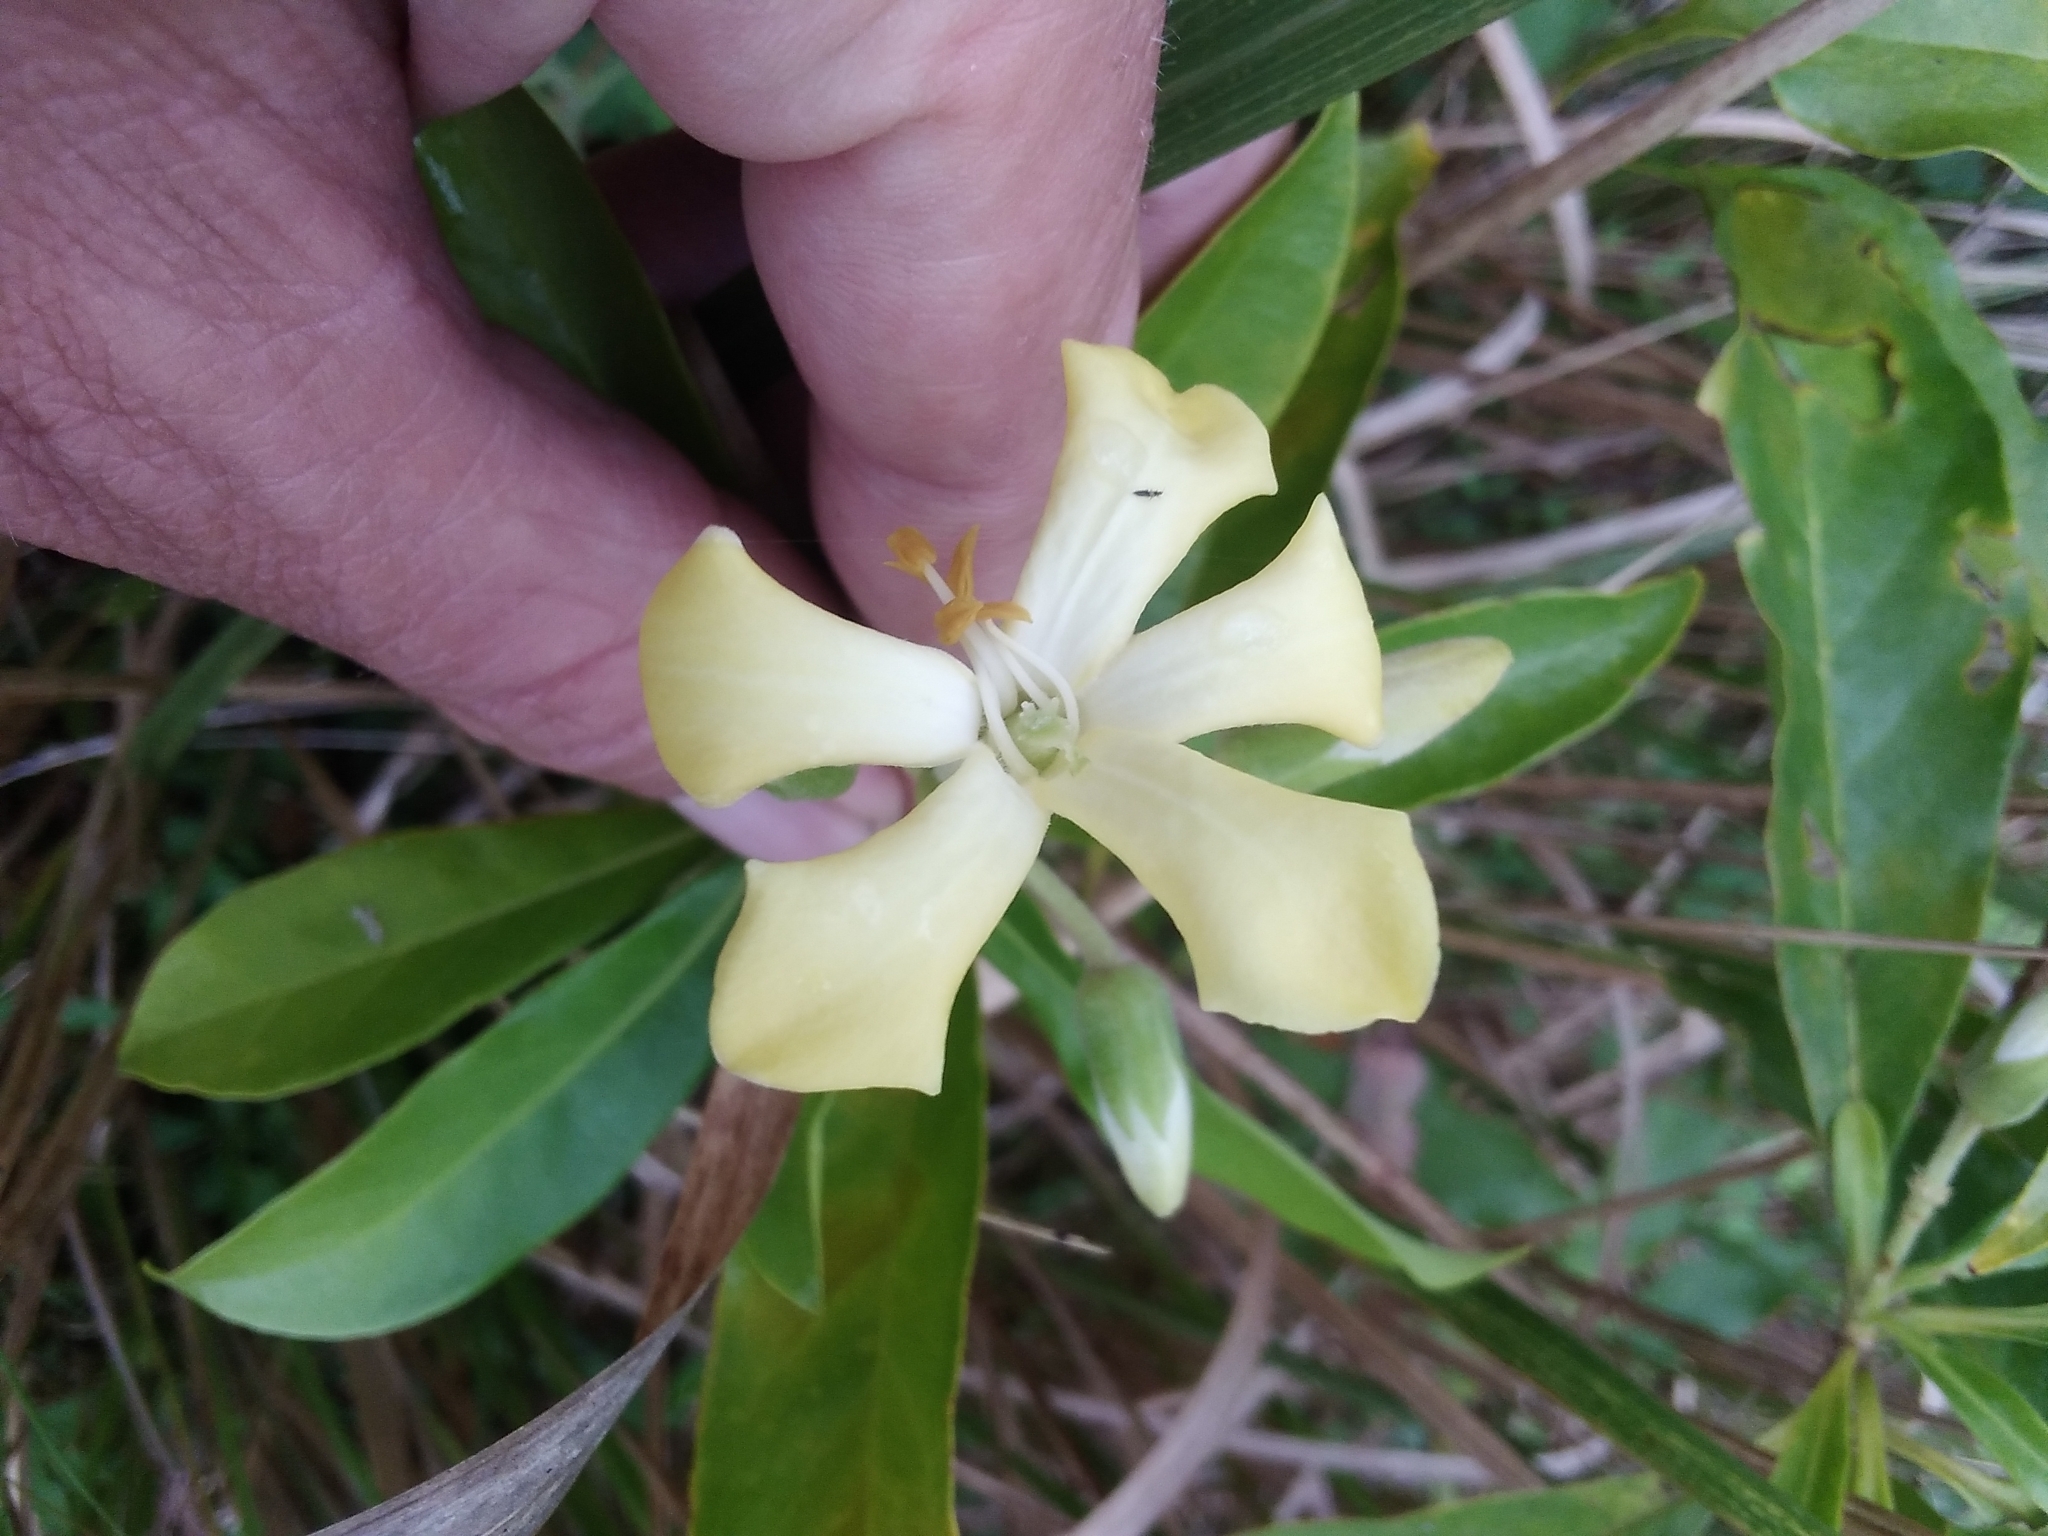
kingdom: Plantae
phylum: Tracheophyta
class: Magnoliopsida
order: Apiales
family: Pittosporaceae
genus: Hymenosporum
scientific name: Hymenosporum flavum
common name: Native frangipani
